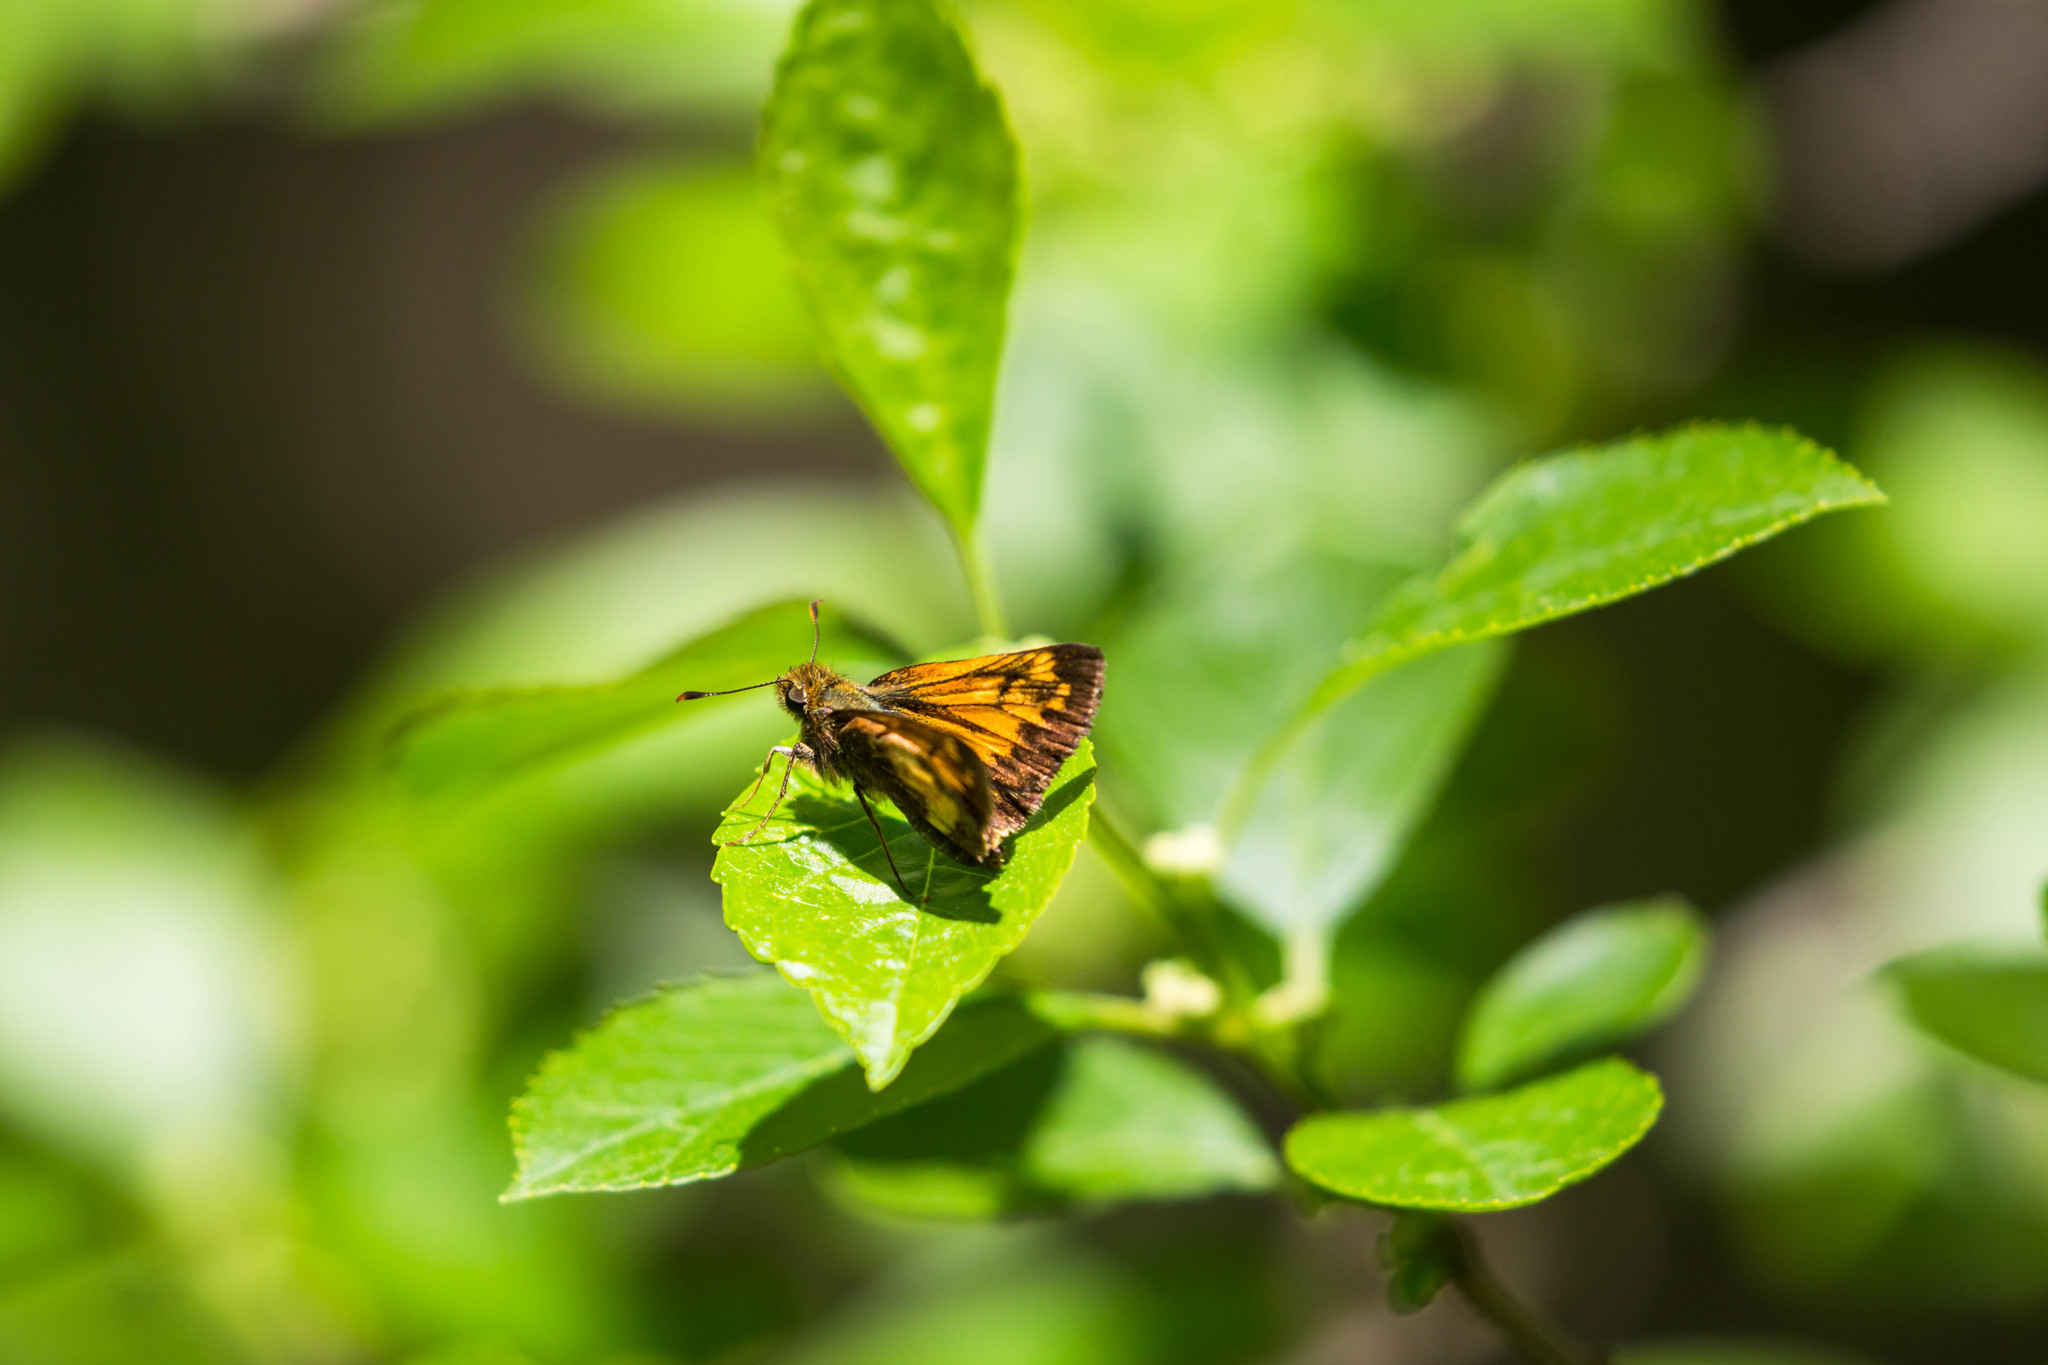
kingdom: Animalia
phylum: Arthropoda
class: Insecta
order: Lepidoptera
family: Hesperiidae
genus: Lon
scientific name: Lon hobomok
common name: Hobomok skipper
